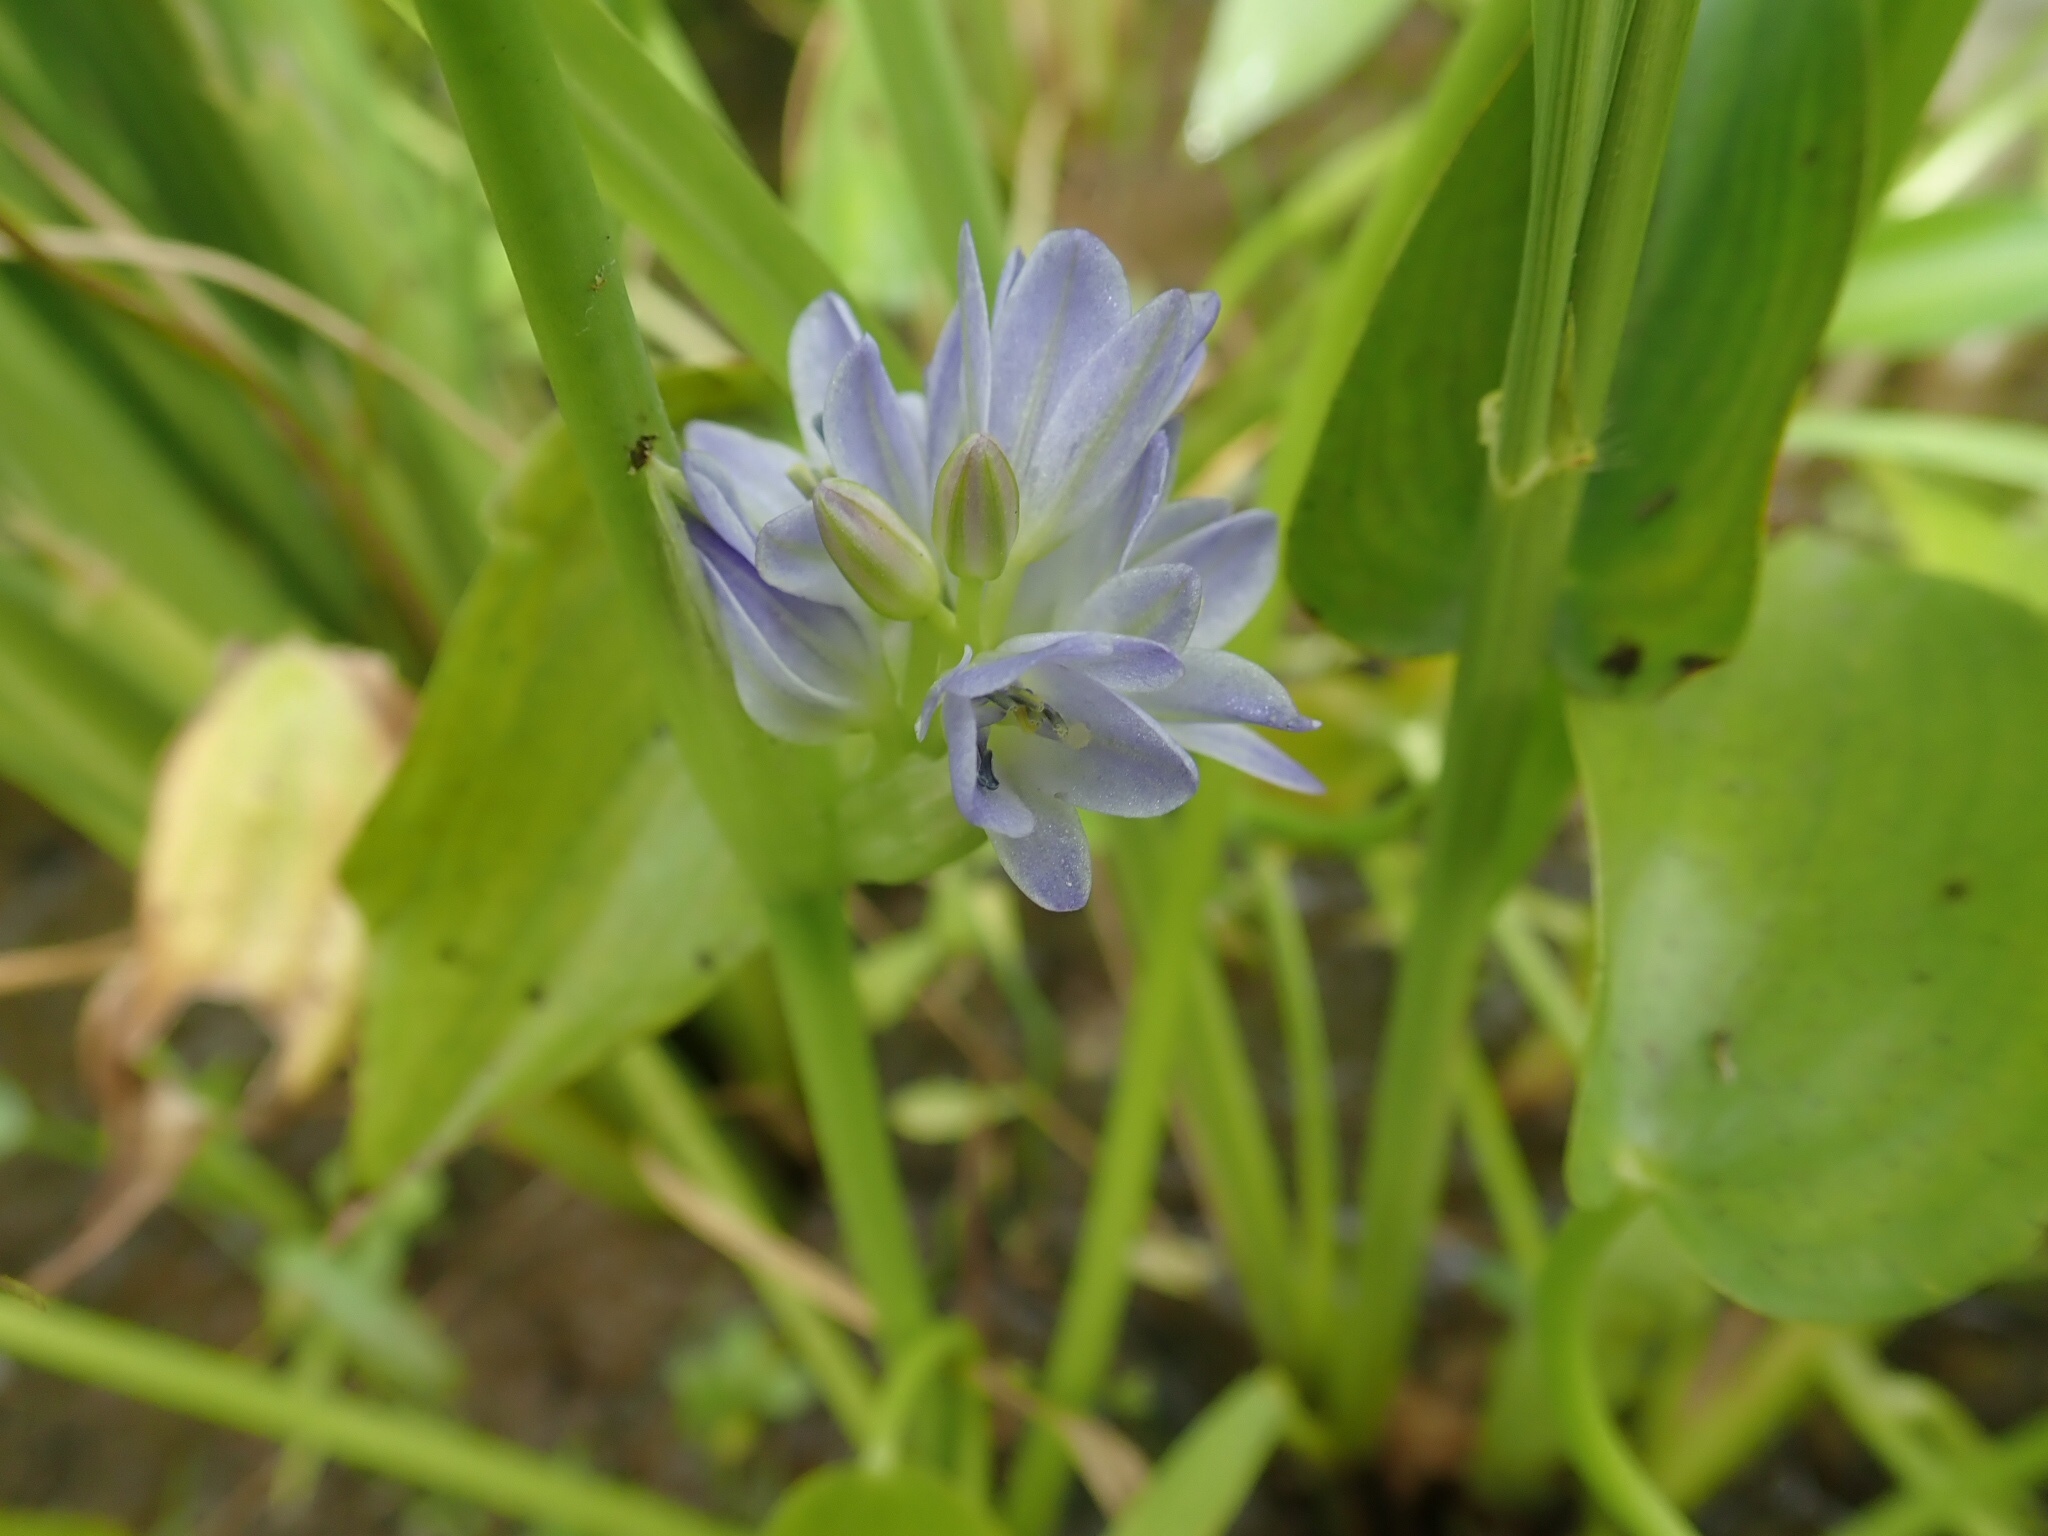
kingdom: Plantae
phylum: Tracheophyta
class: Liliopsida
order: Commelinales
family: Pontederiaceae
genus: Pontederia
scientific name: Pontederia vaginalis
